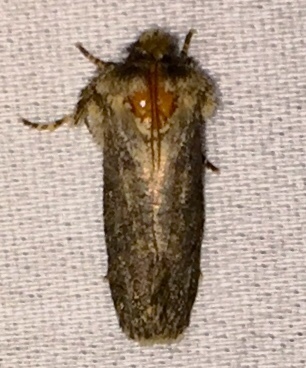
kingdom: Animalia
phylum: Arthropoda
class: Insecta
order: Lepidoptera
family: Tineidae
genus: Acrolophus
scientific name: Acrolophus arcanella
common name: Arcane grass tubeworm moth
